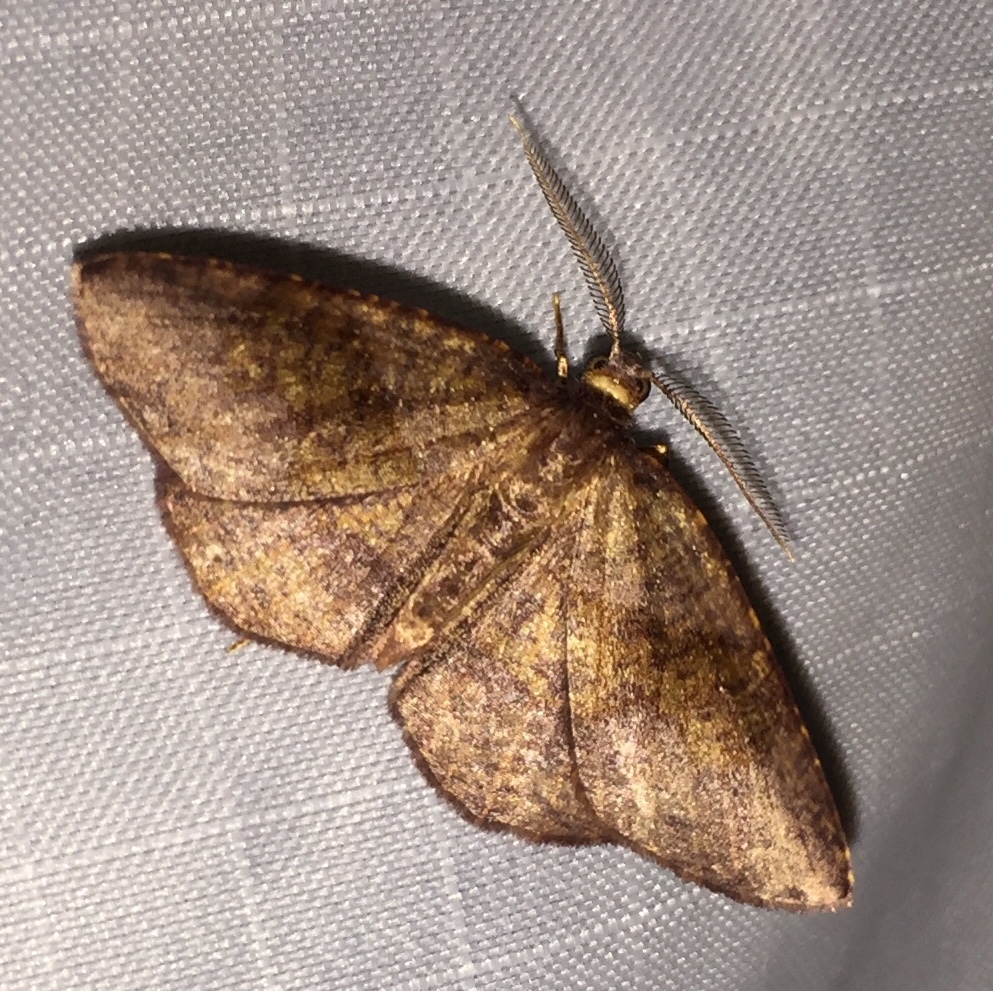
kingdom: Animalia
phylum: Arthropoda
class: Insecta
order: Lepidoptera
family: Geometridae
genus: Ilexia
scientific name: Ilexia intractata
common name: Black-dotted ruddy moth
